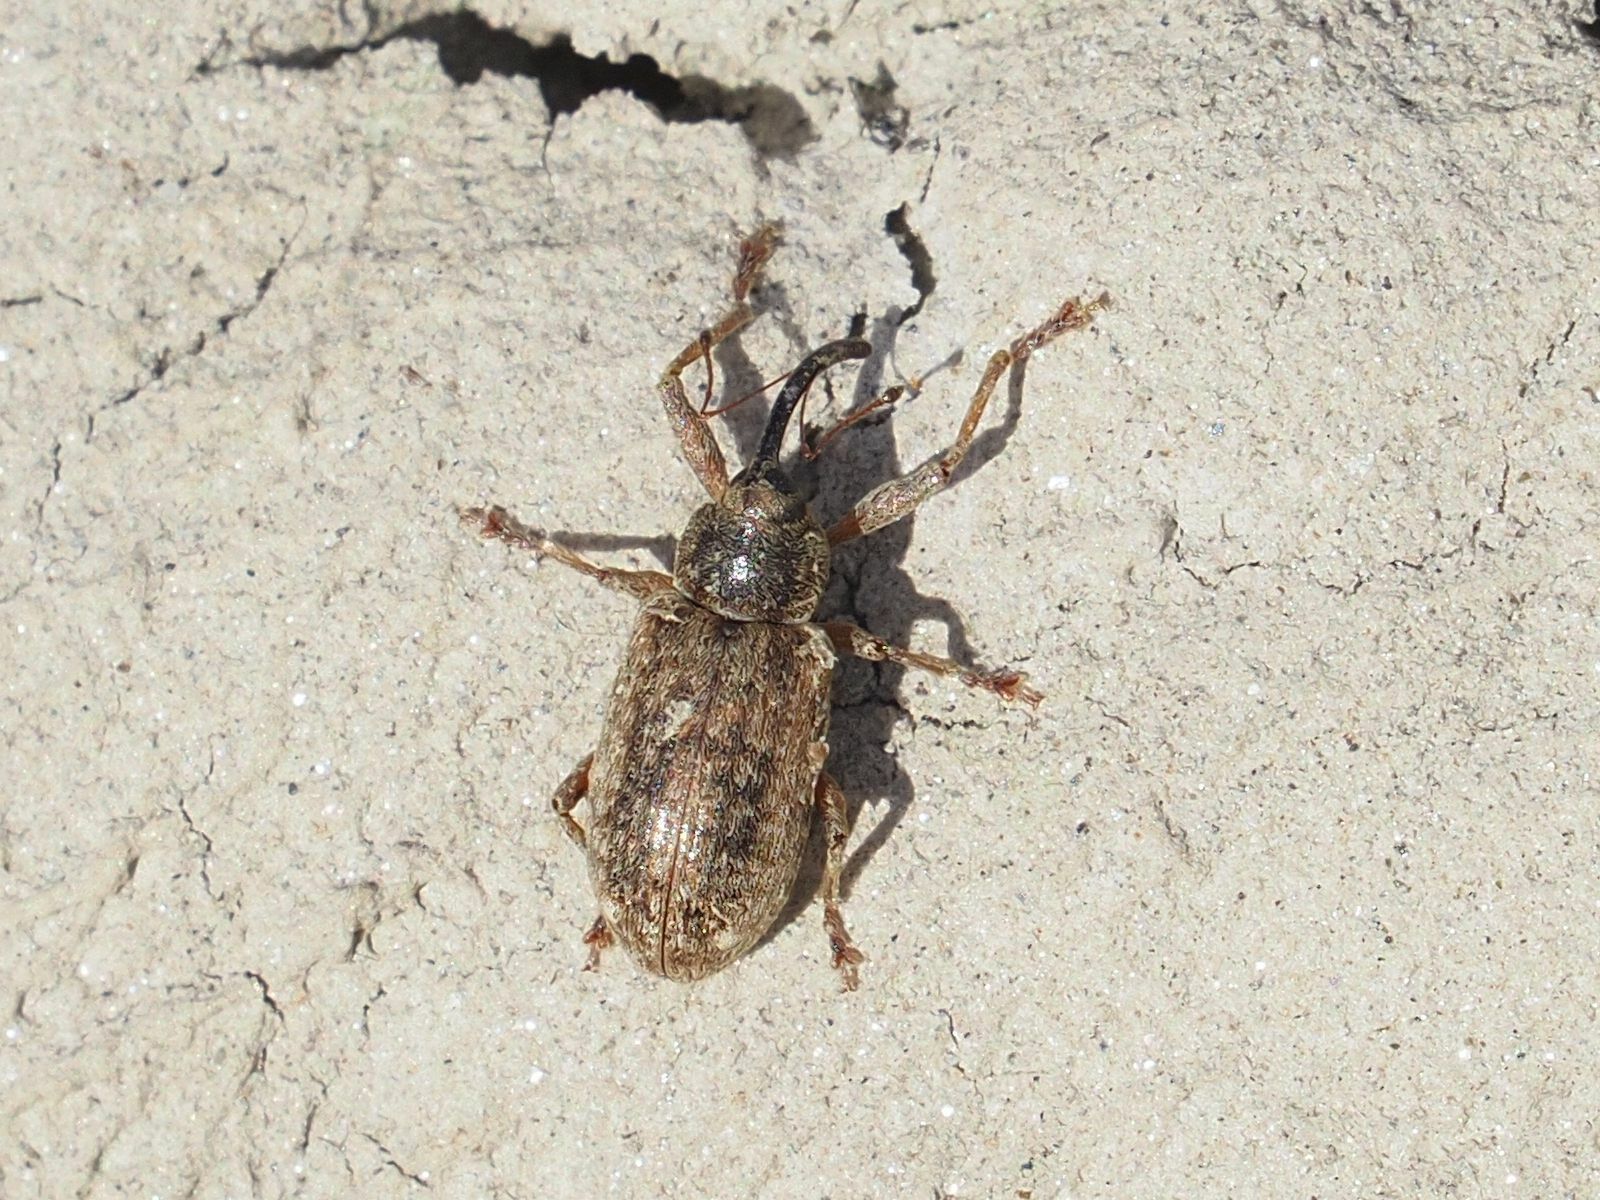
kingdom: Animalia
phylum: Arthropoda
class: Insecta
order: Coleoptera
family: Curculionidae
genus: Dorytomus
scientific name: Dorytomus longimanus
